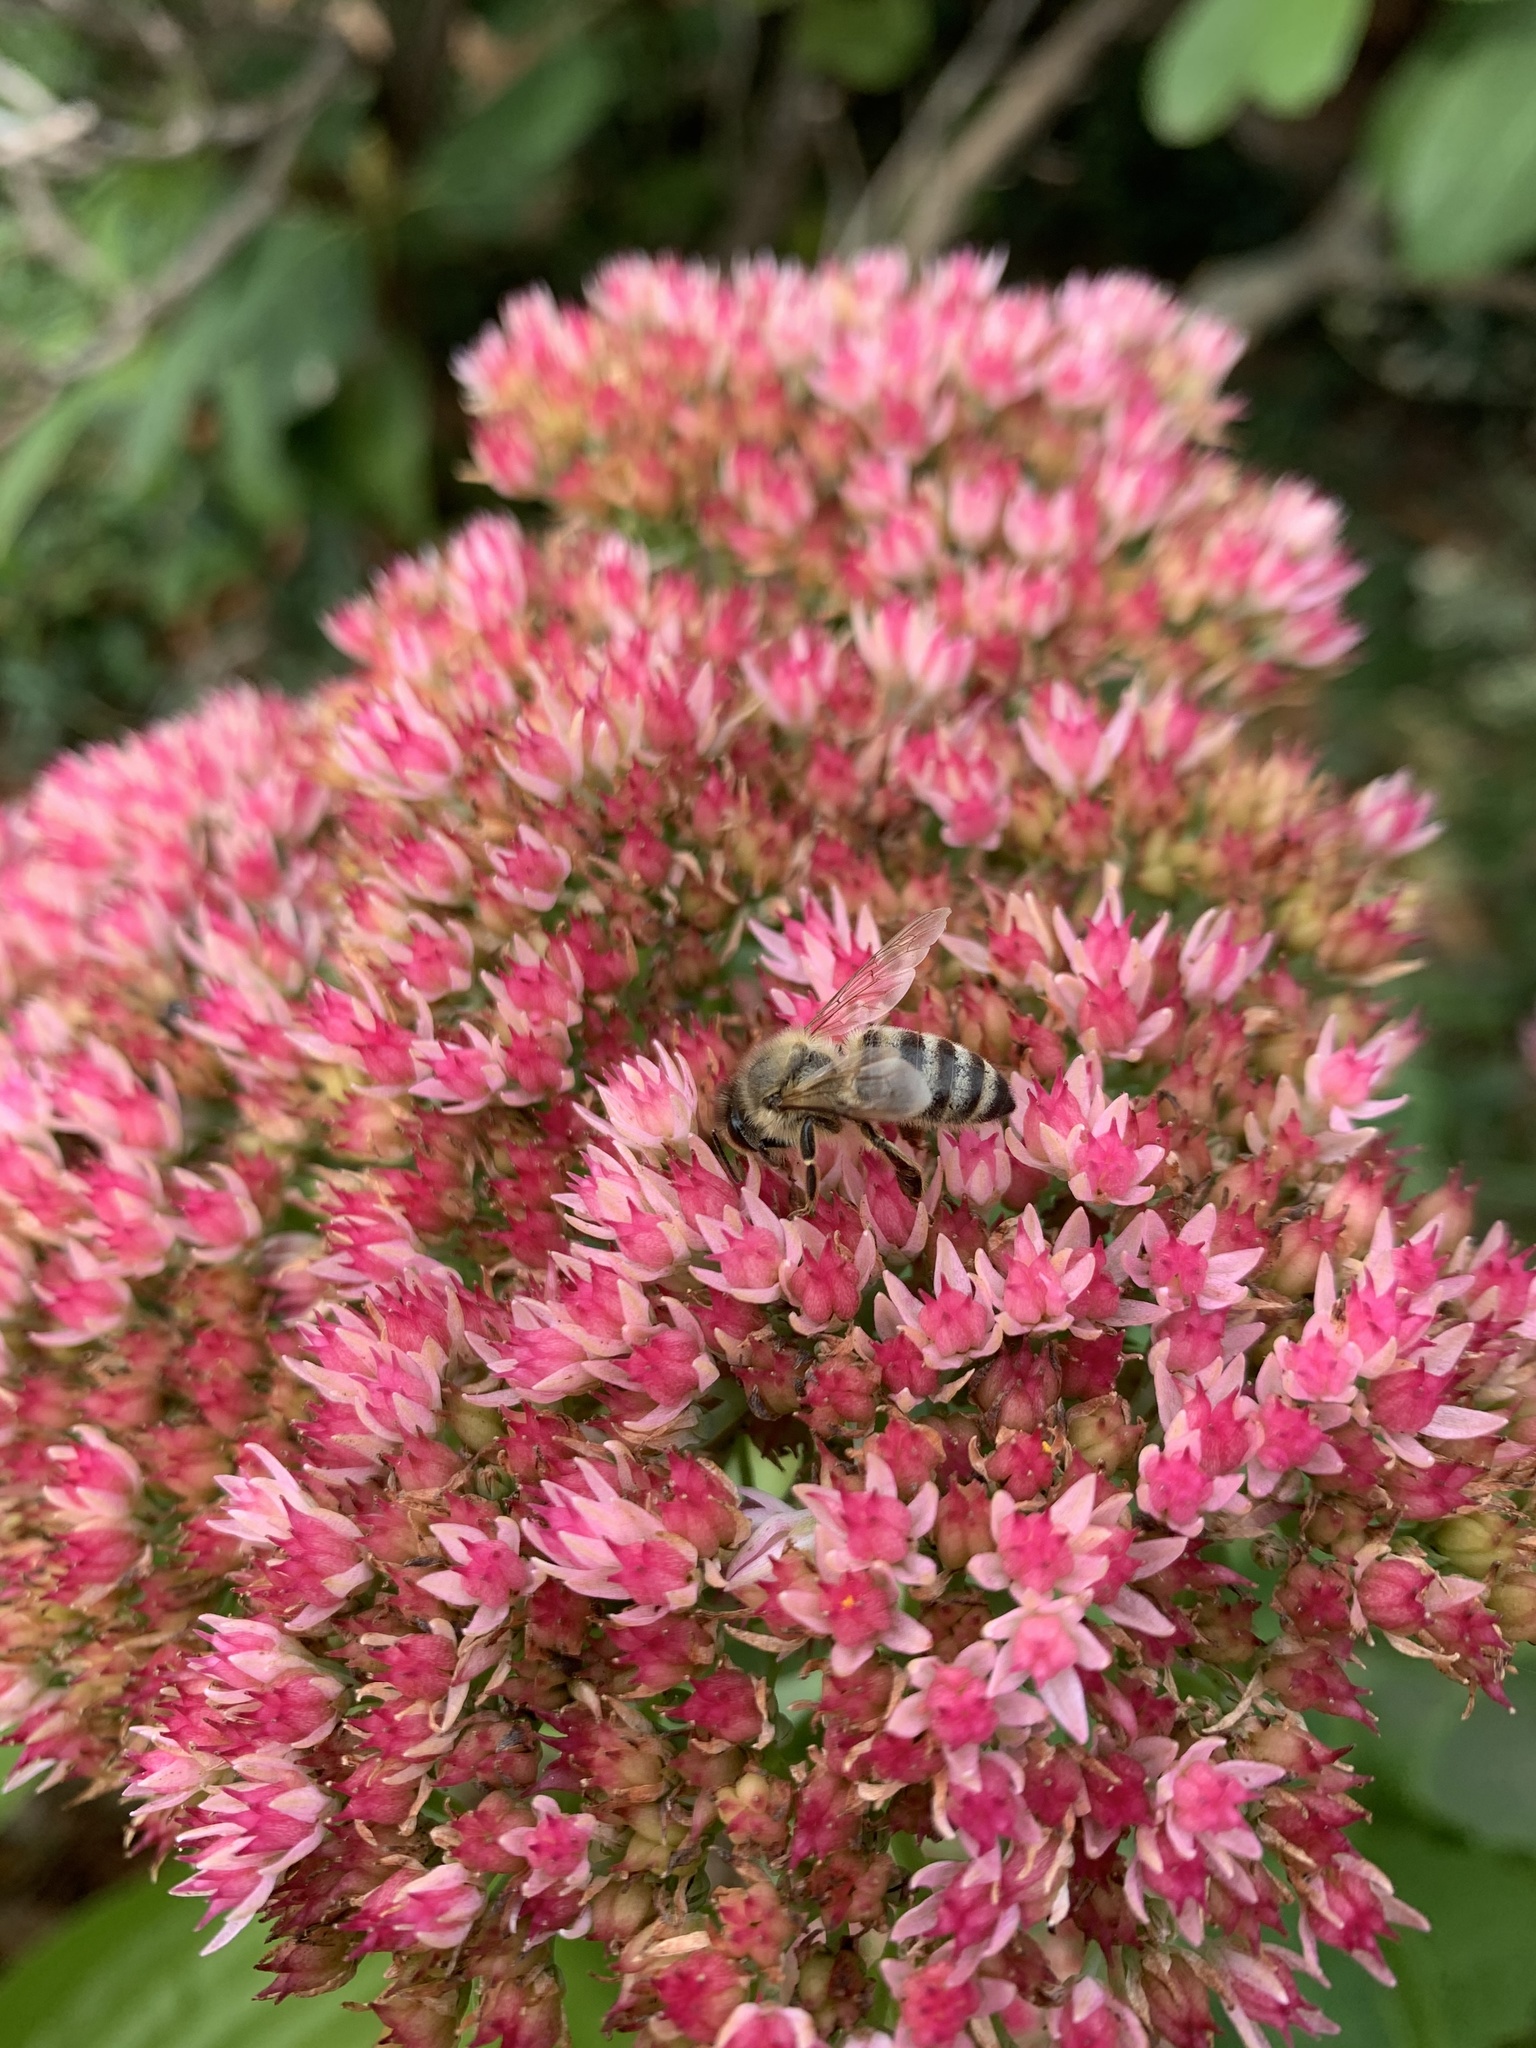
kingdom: Animalia
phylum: Arthropoda
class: Insecta
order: Hymenoptera
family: Apidae
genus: Apis
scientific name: Apis mellifera
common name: Honey bee
